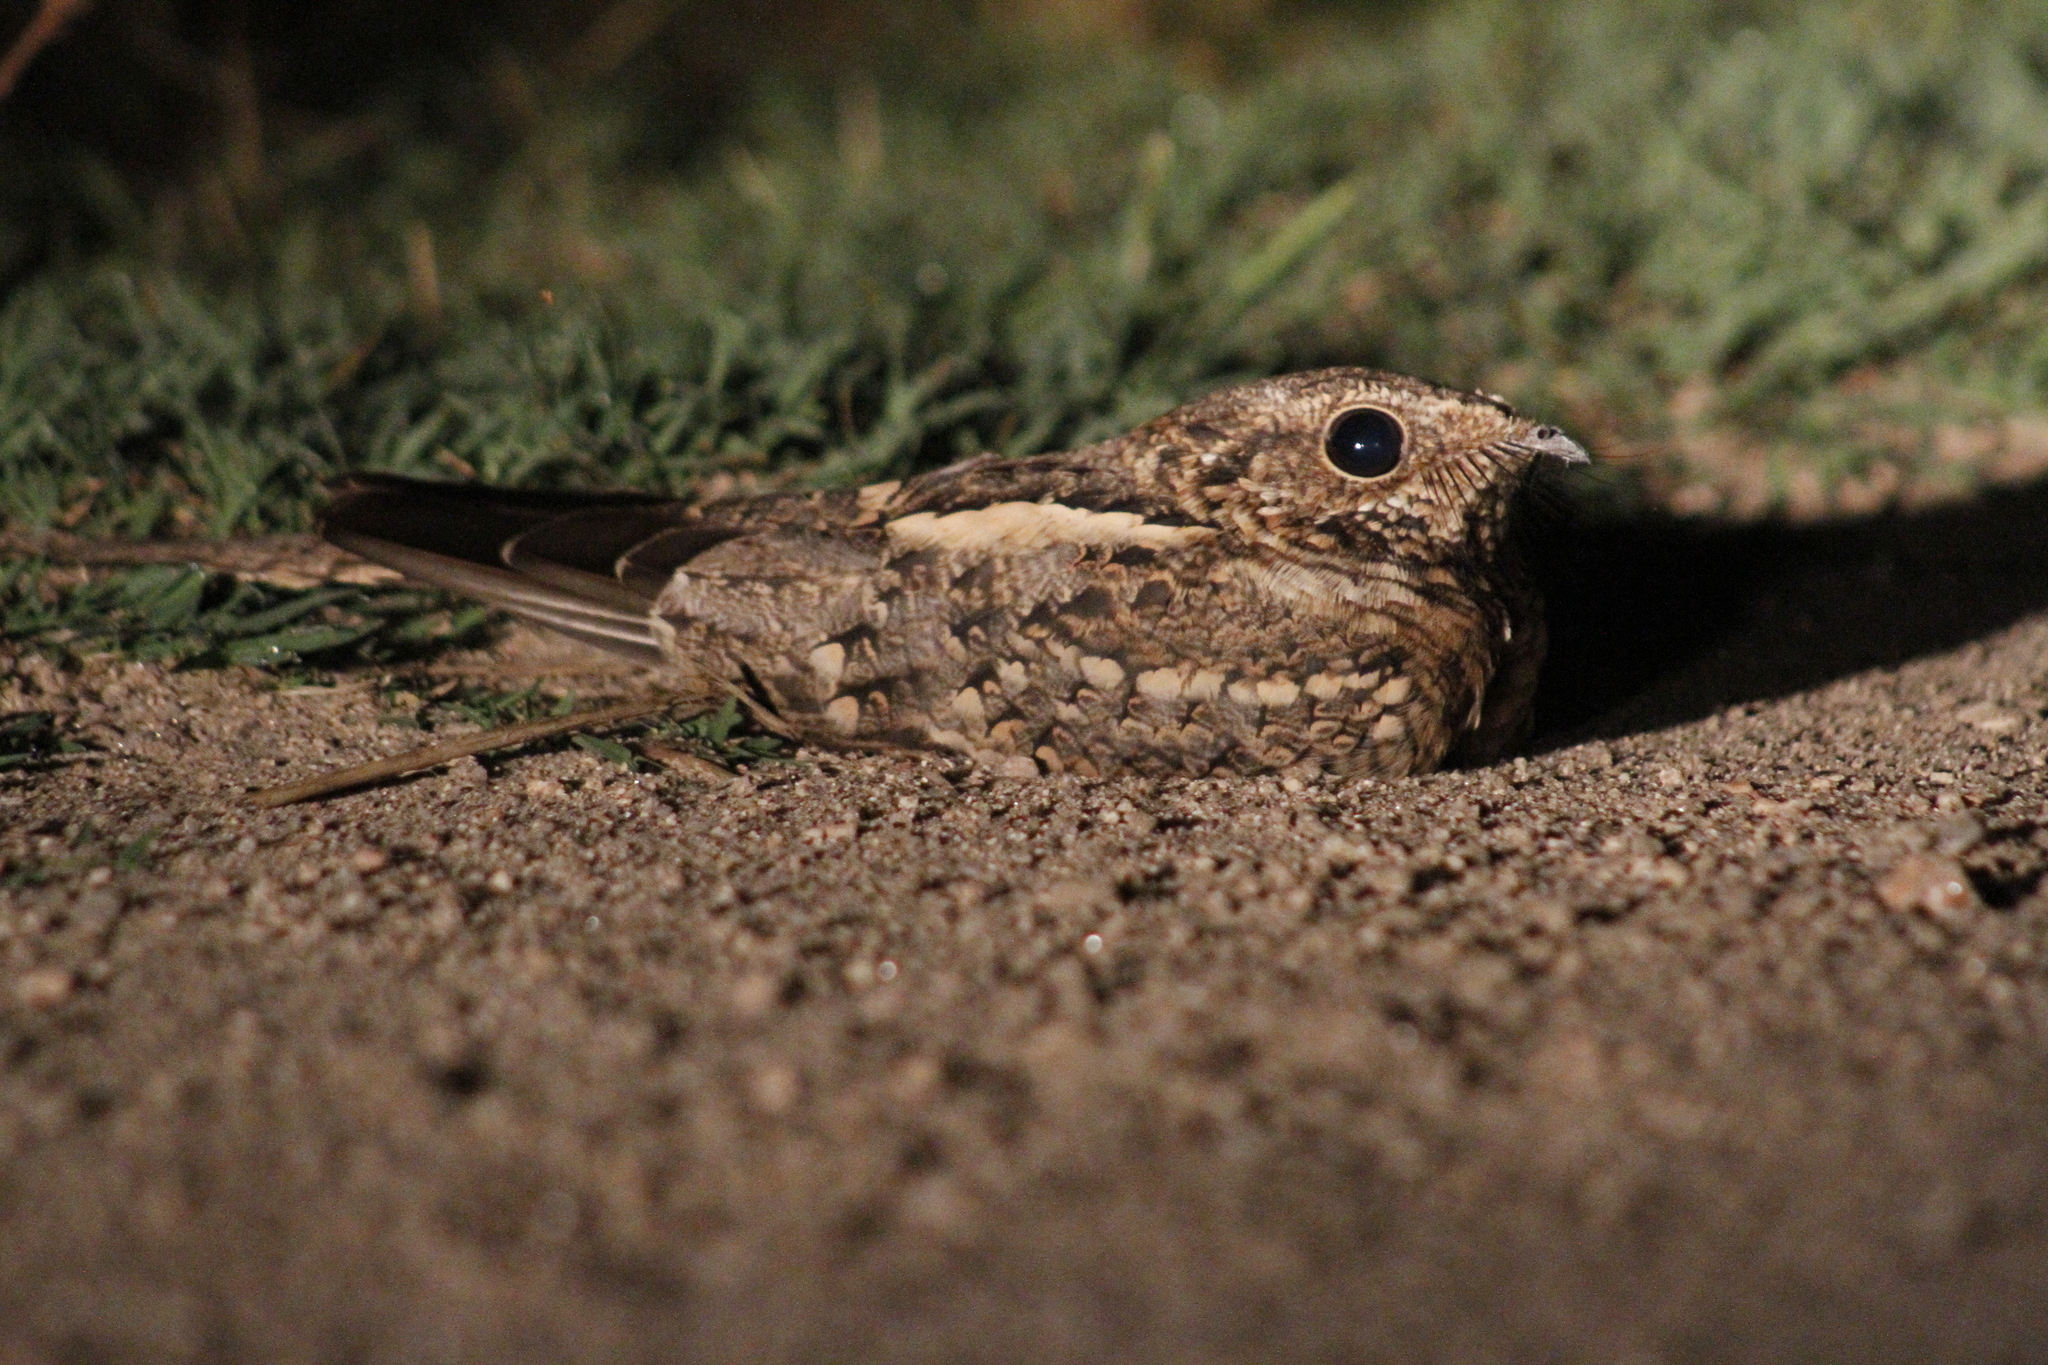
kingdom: Animalia
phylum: Chordata
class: Aves
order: Caprimulgiformes
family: Caprimulgidae
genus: Hydropsalis
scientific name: Hydropsalis torquata
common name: Scissor-tailed nightjar
